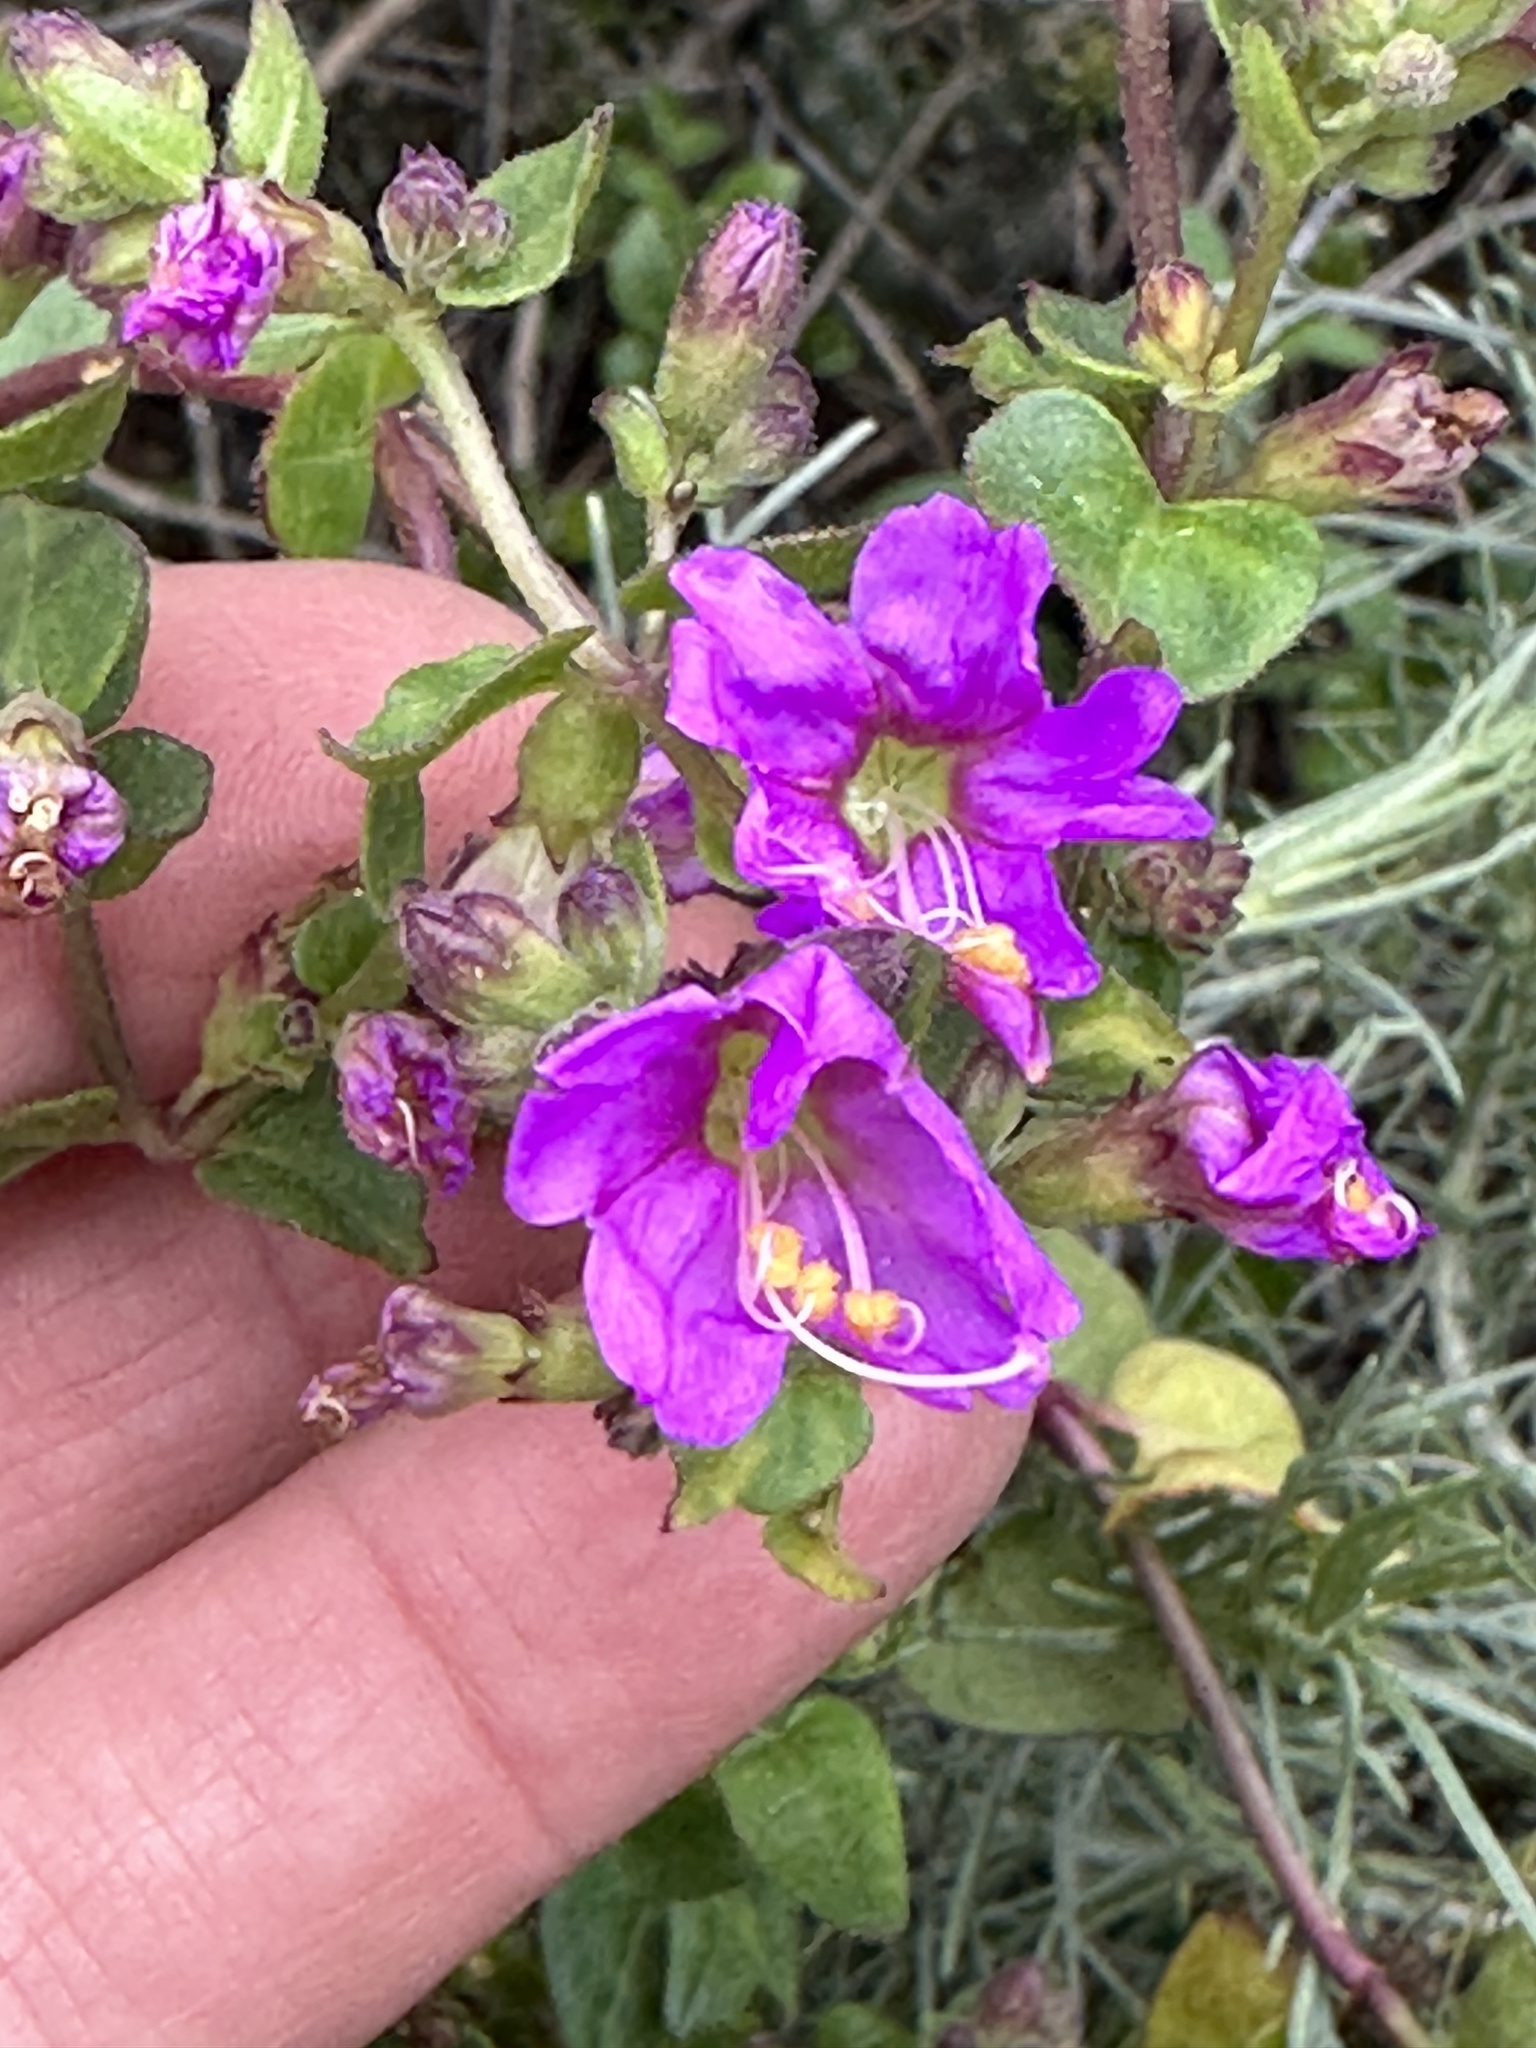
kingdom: Plantae
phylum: Tracheophyta
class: Magnoliopsida
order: Caryophyllales
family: Nyctaginaceae
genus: Mirabilis
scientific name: Mirabilis laevis
